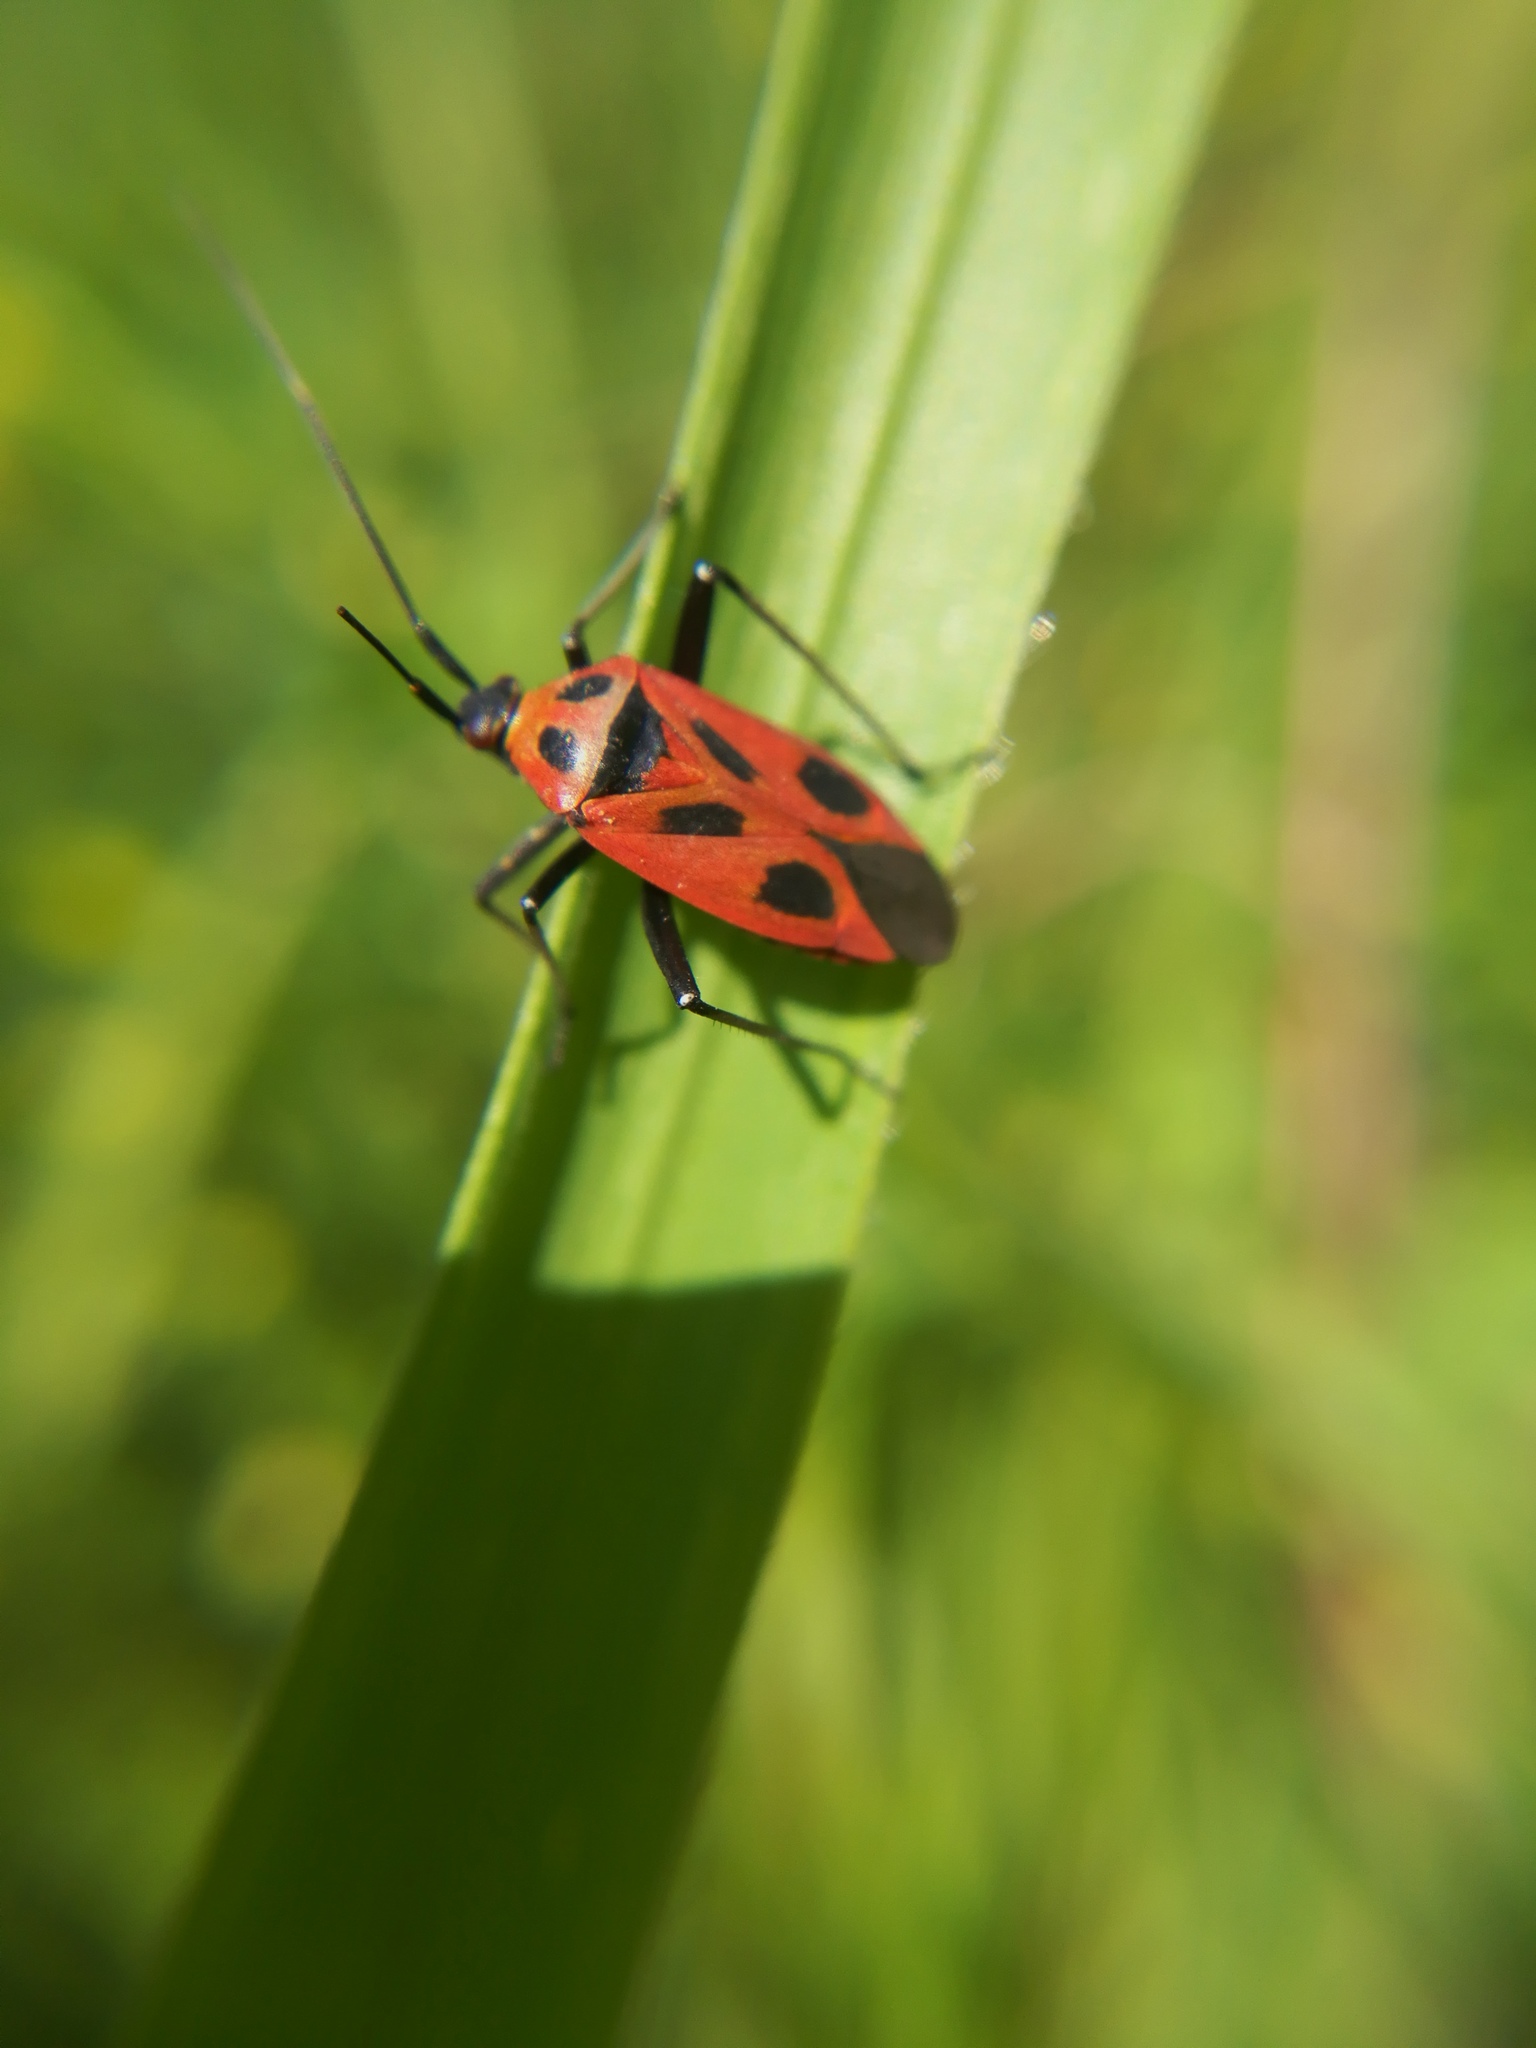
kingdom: Animalia
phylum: Arthropoda
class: Insecta
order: Hemiptera
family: Miridae
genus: Calocoris
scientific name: Calocoris nemoralis
